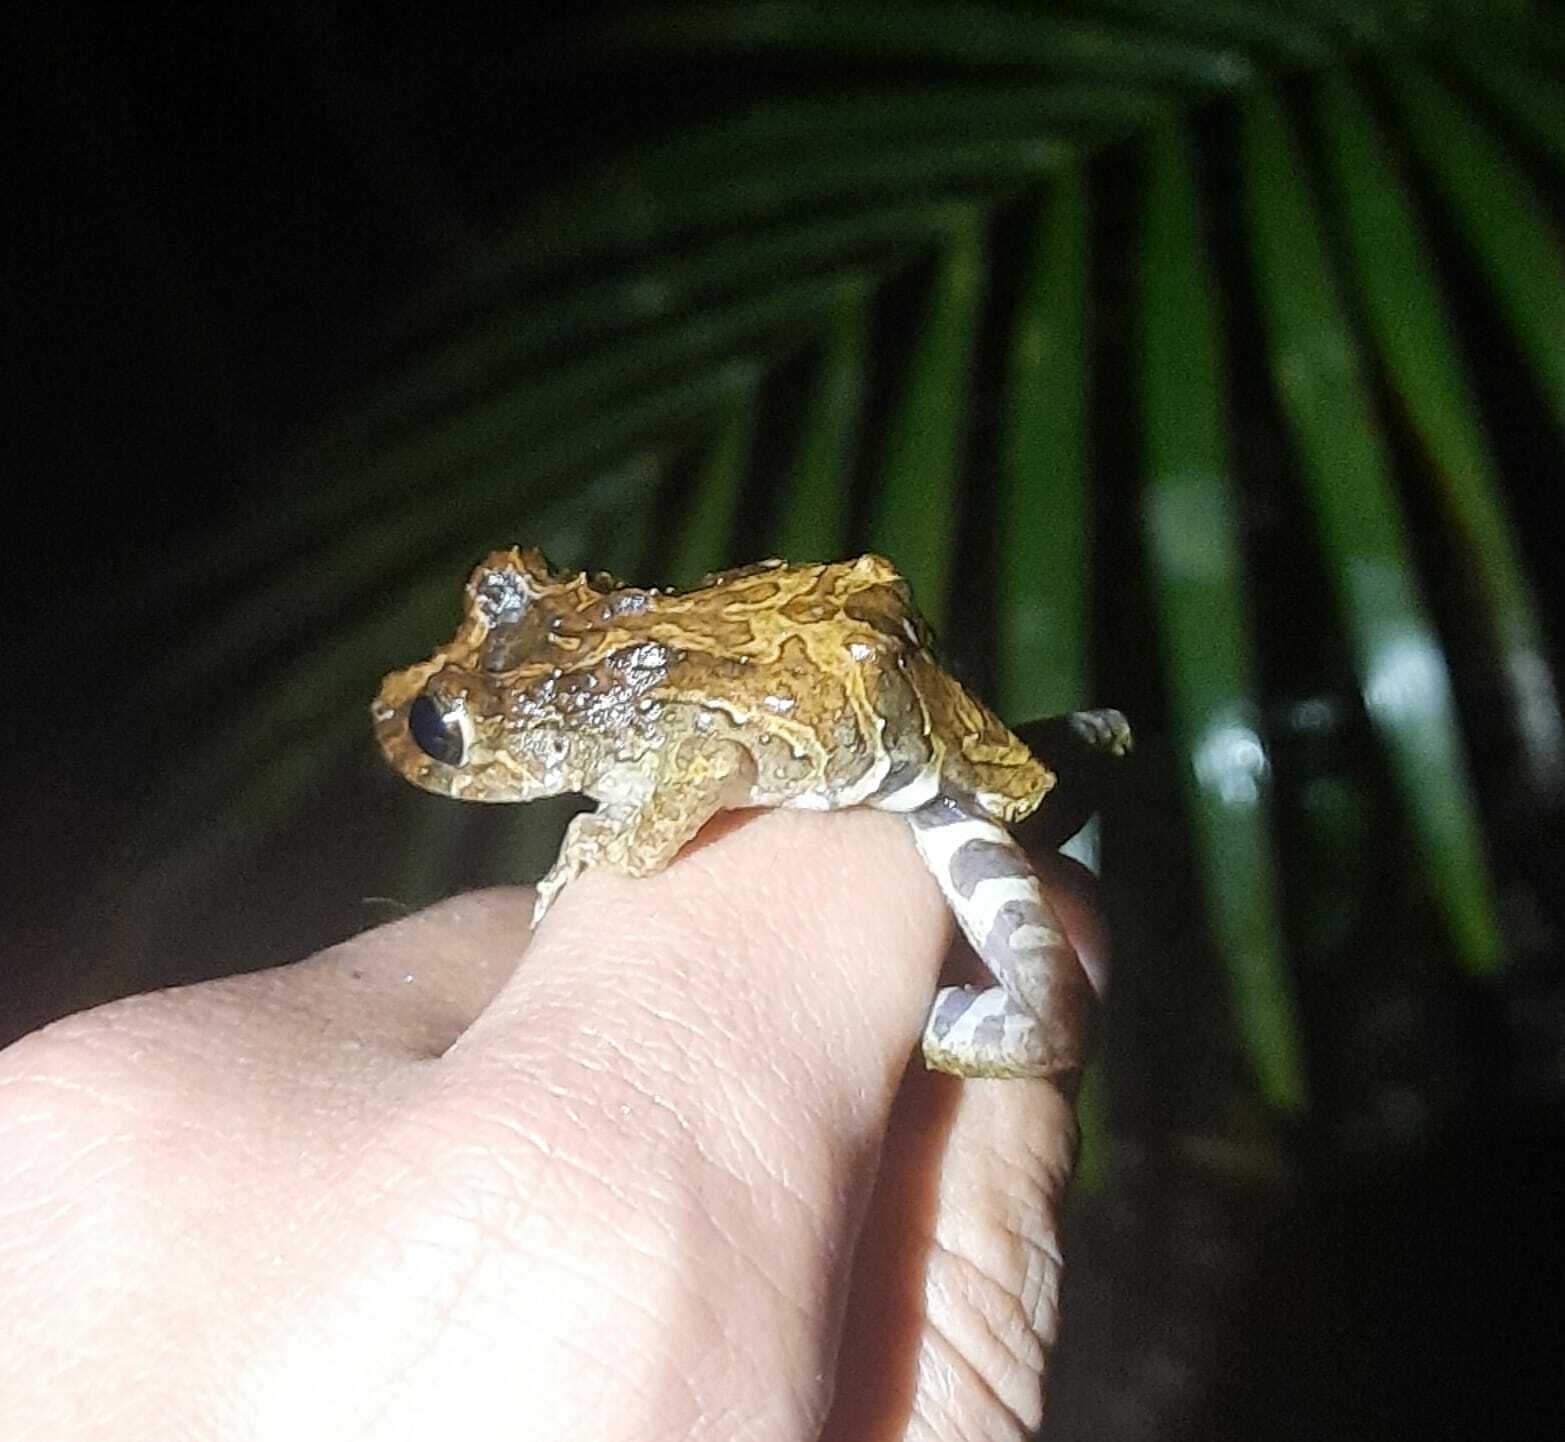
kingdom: Animalia
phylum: Chordata
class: Amphibia
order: Anura
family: Hylidae
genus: Ololygon
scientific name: Ololygon catharinae
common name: Catharina snouted treefrog
